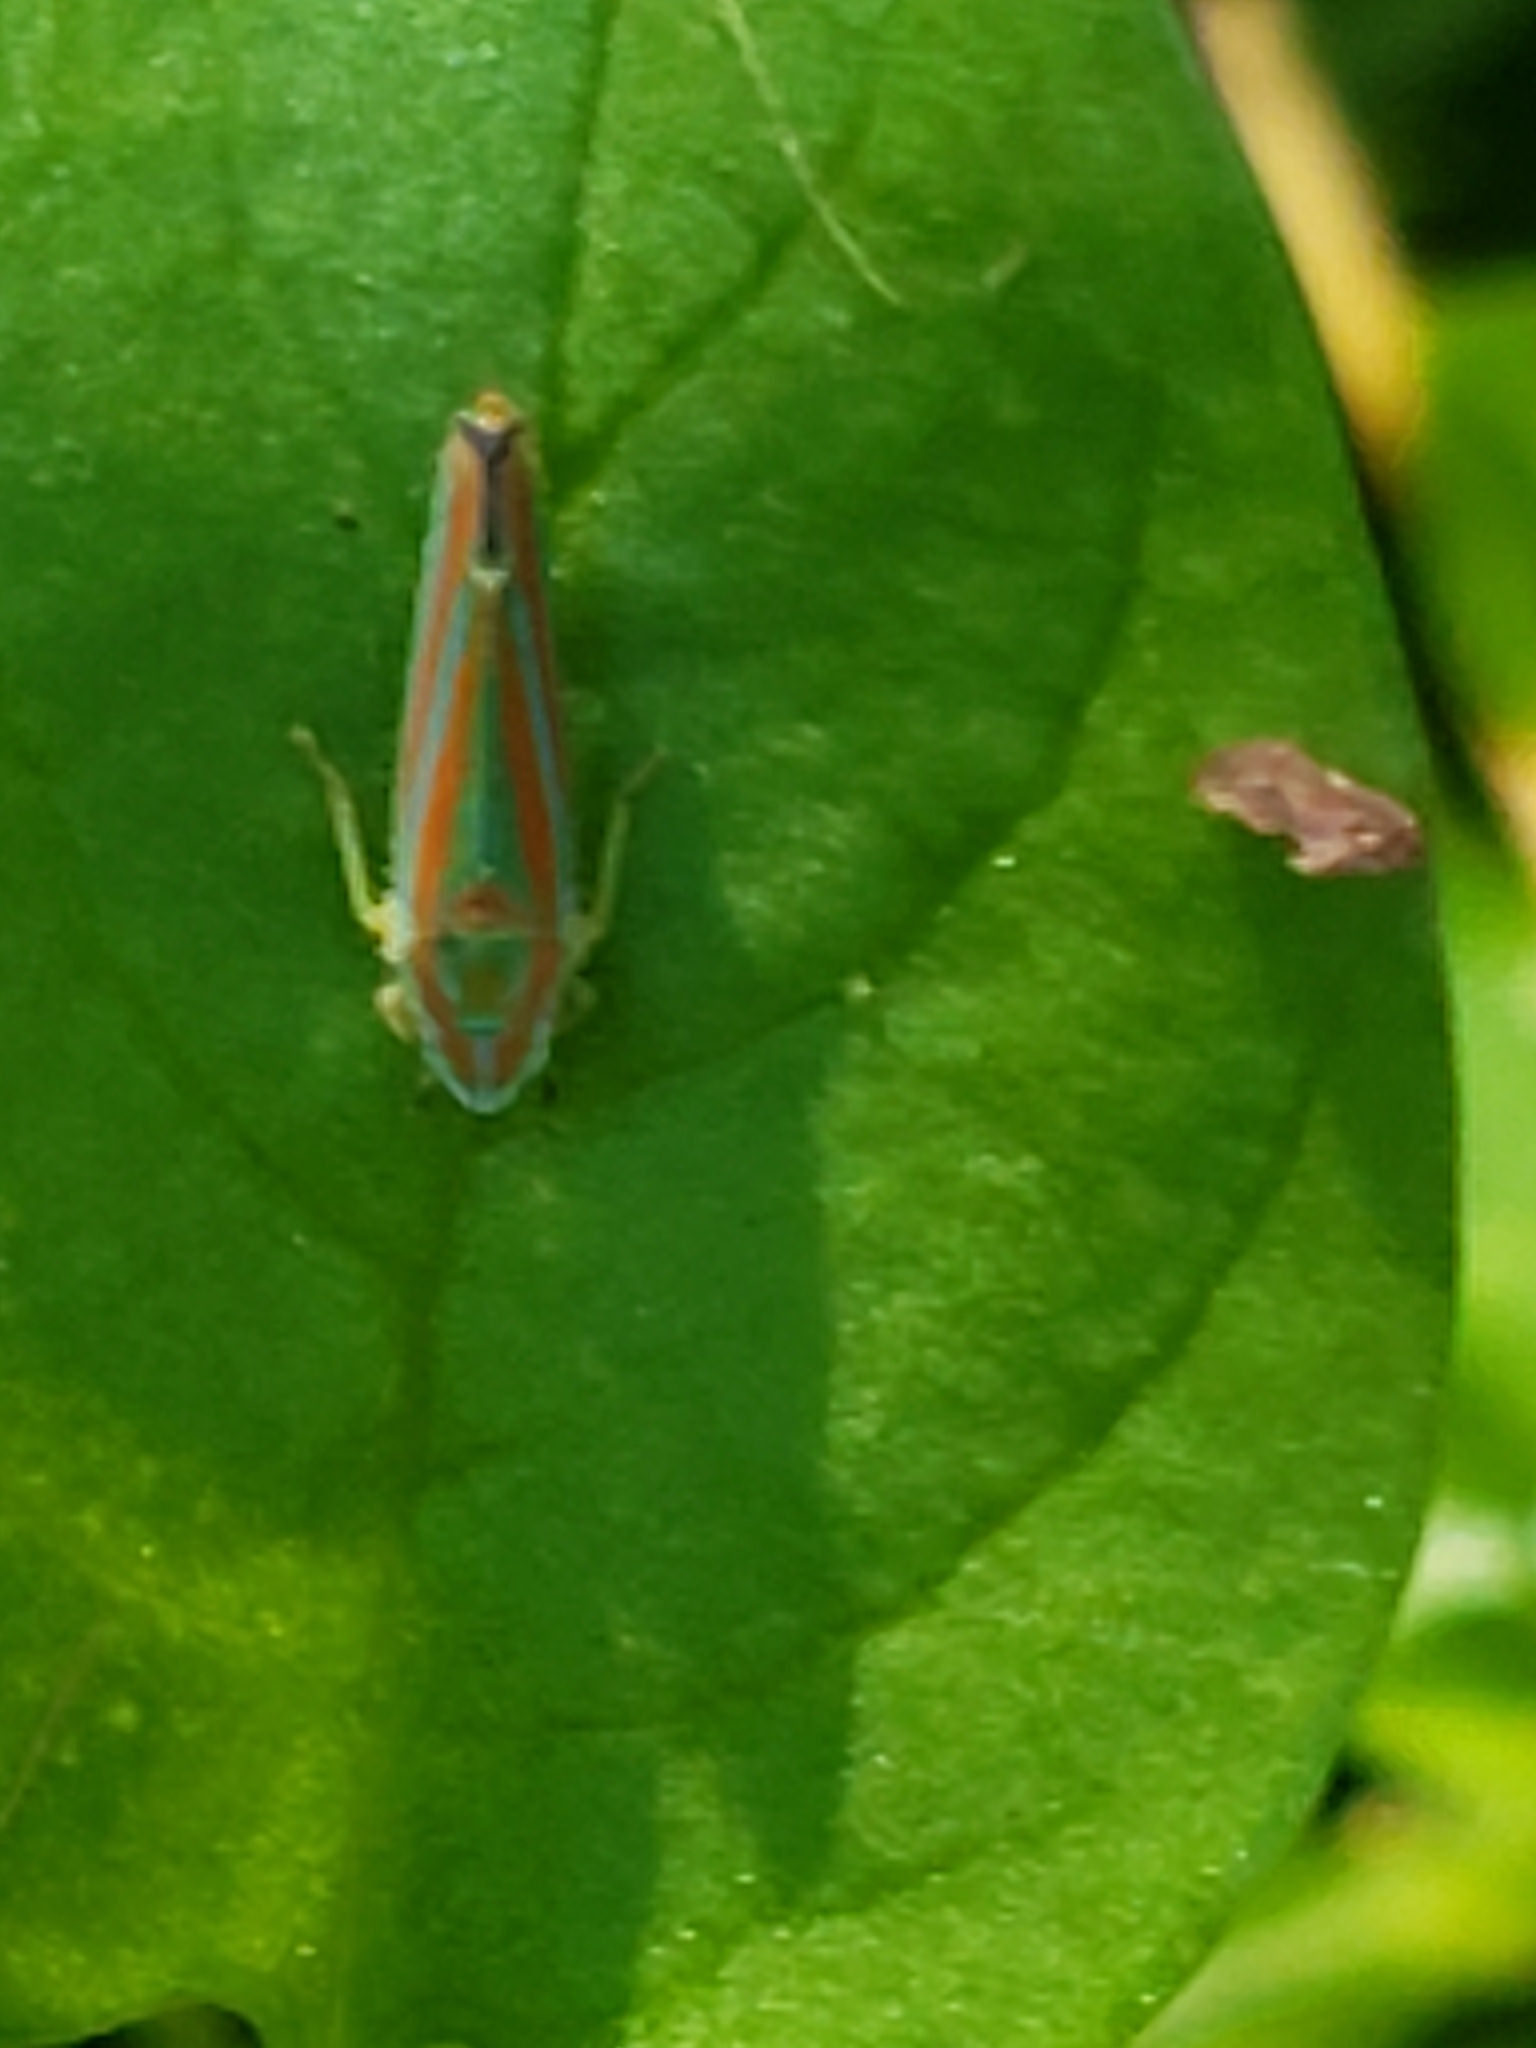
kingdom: Animalia
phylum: Arthropoda
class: Insecta
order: Hemiptera
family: Cicadellidae
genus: Graphocephala
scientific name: Graphocephala versuta
